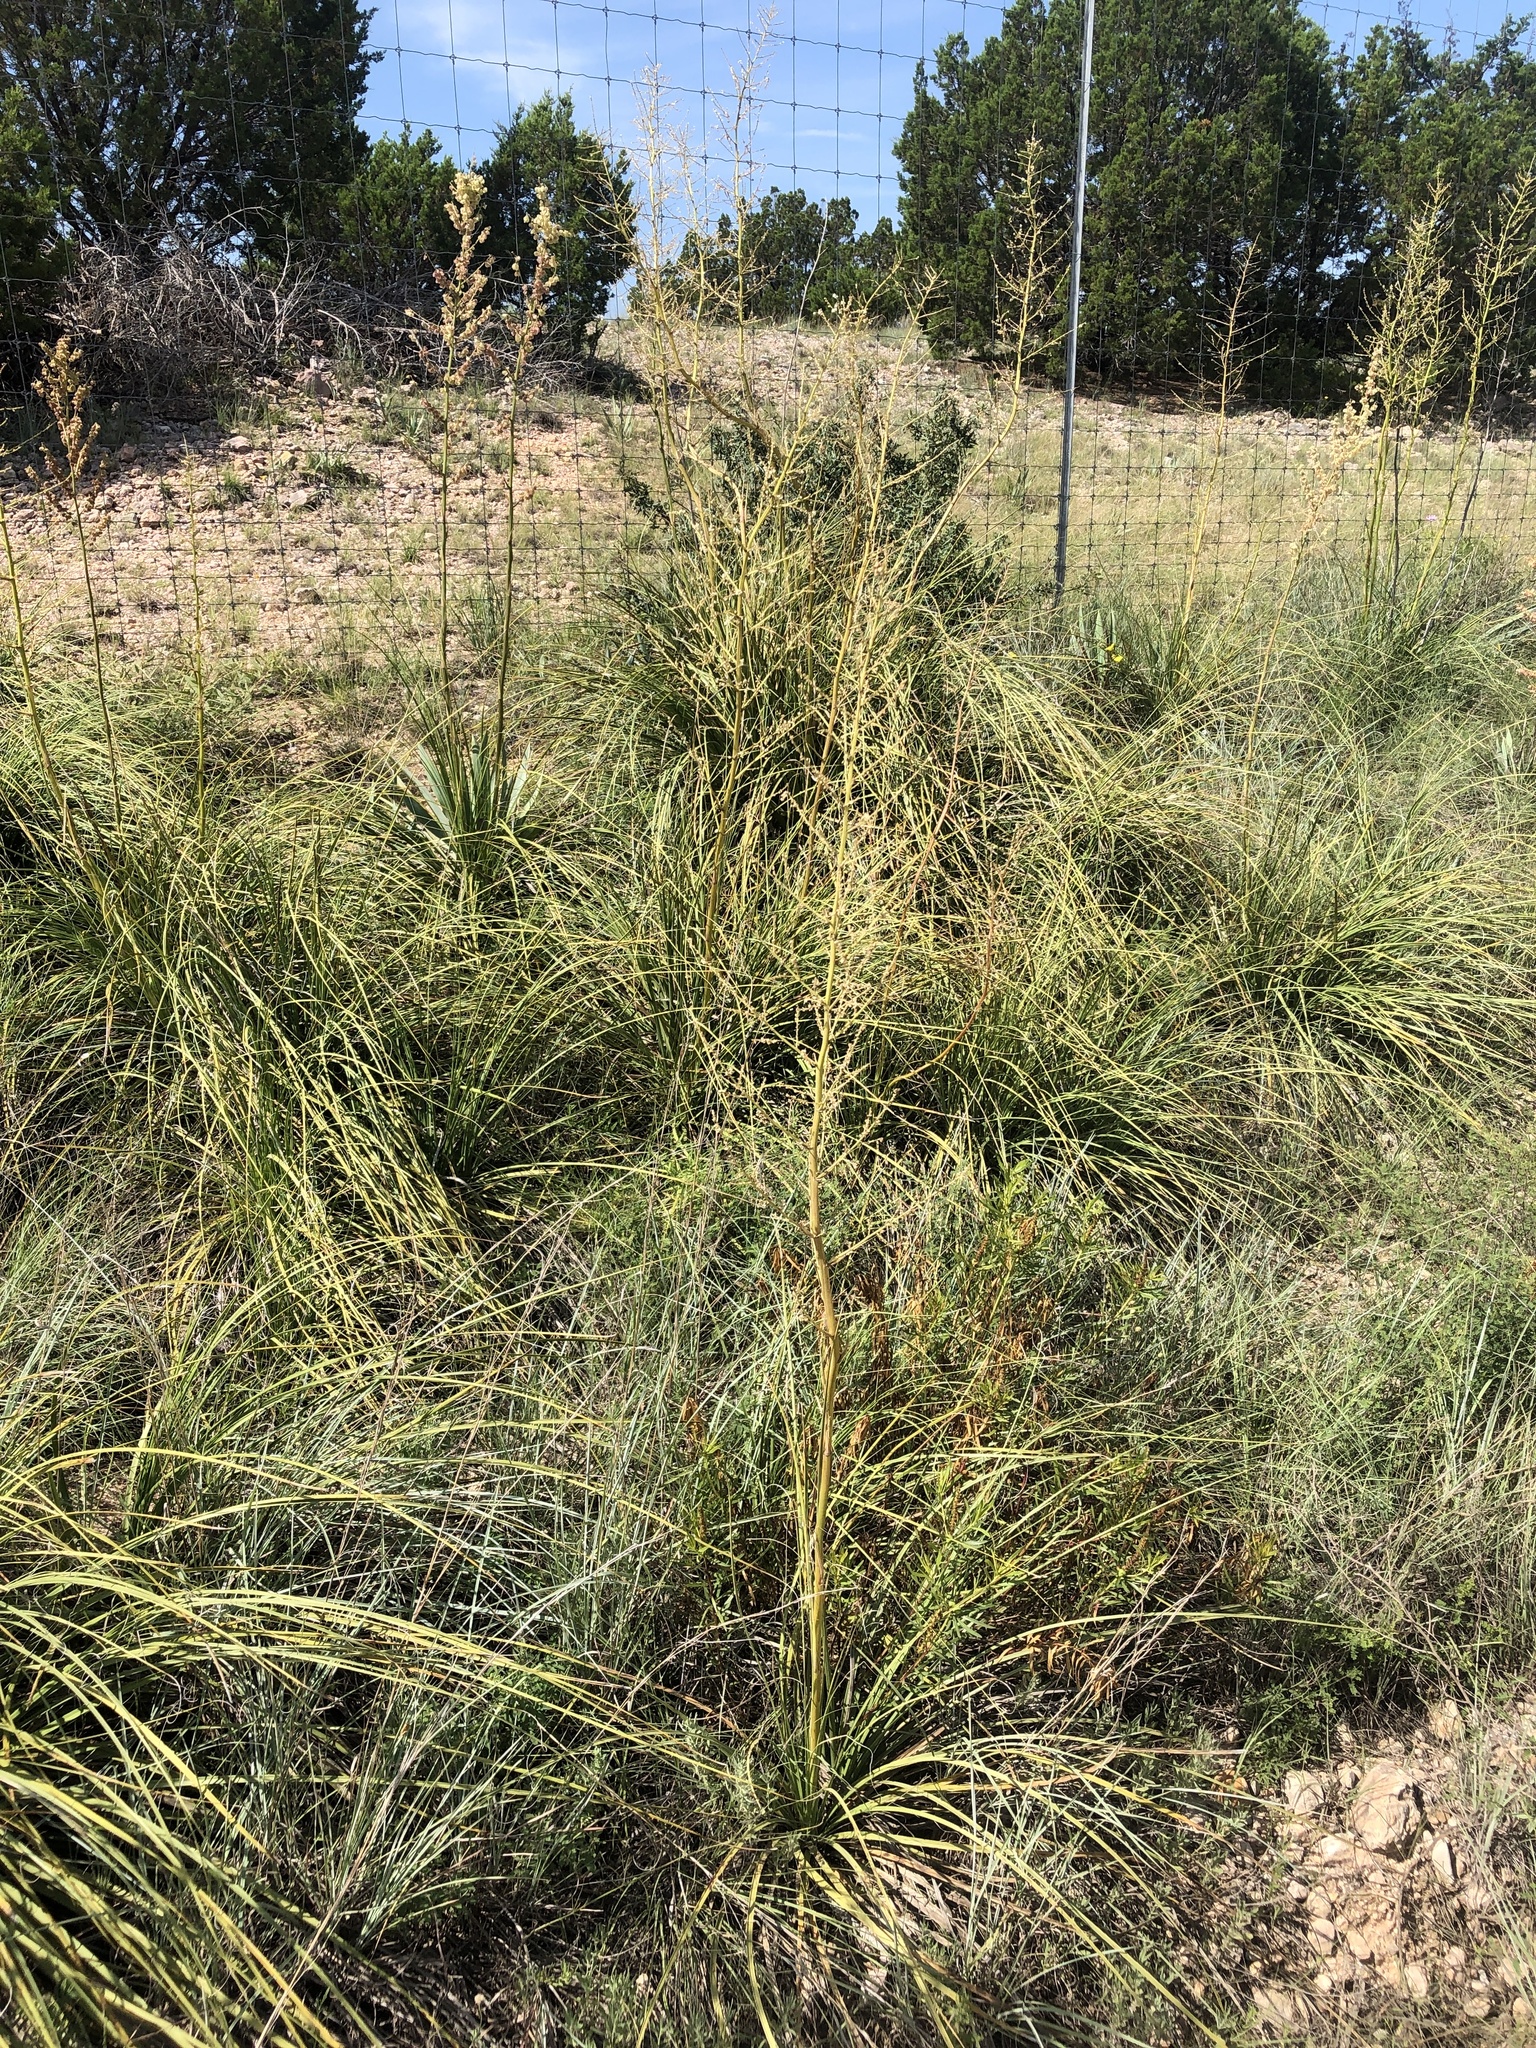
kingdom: Plantae
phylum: Tracheophyta
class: Liliopsida
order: Asparagales
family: Asparagaceae
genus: Nolina
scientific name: Nolina lindheimeriana
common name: Lindheimer's bear-grass
